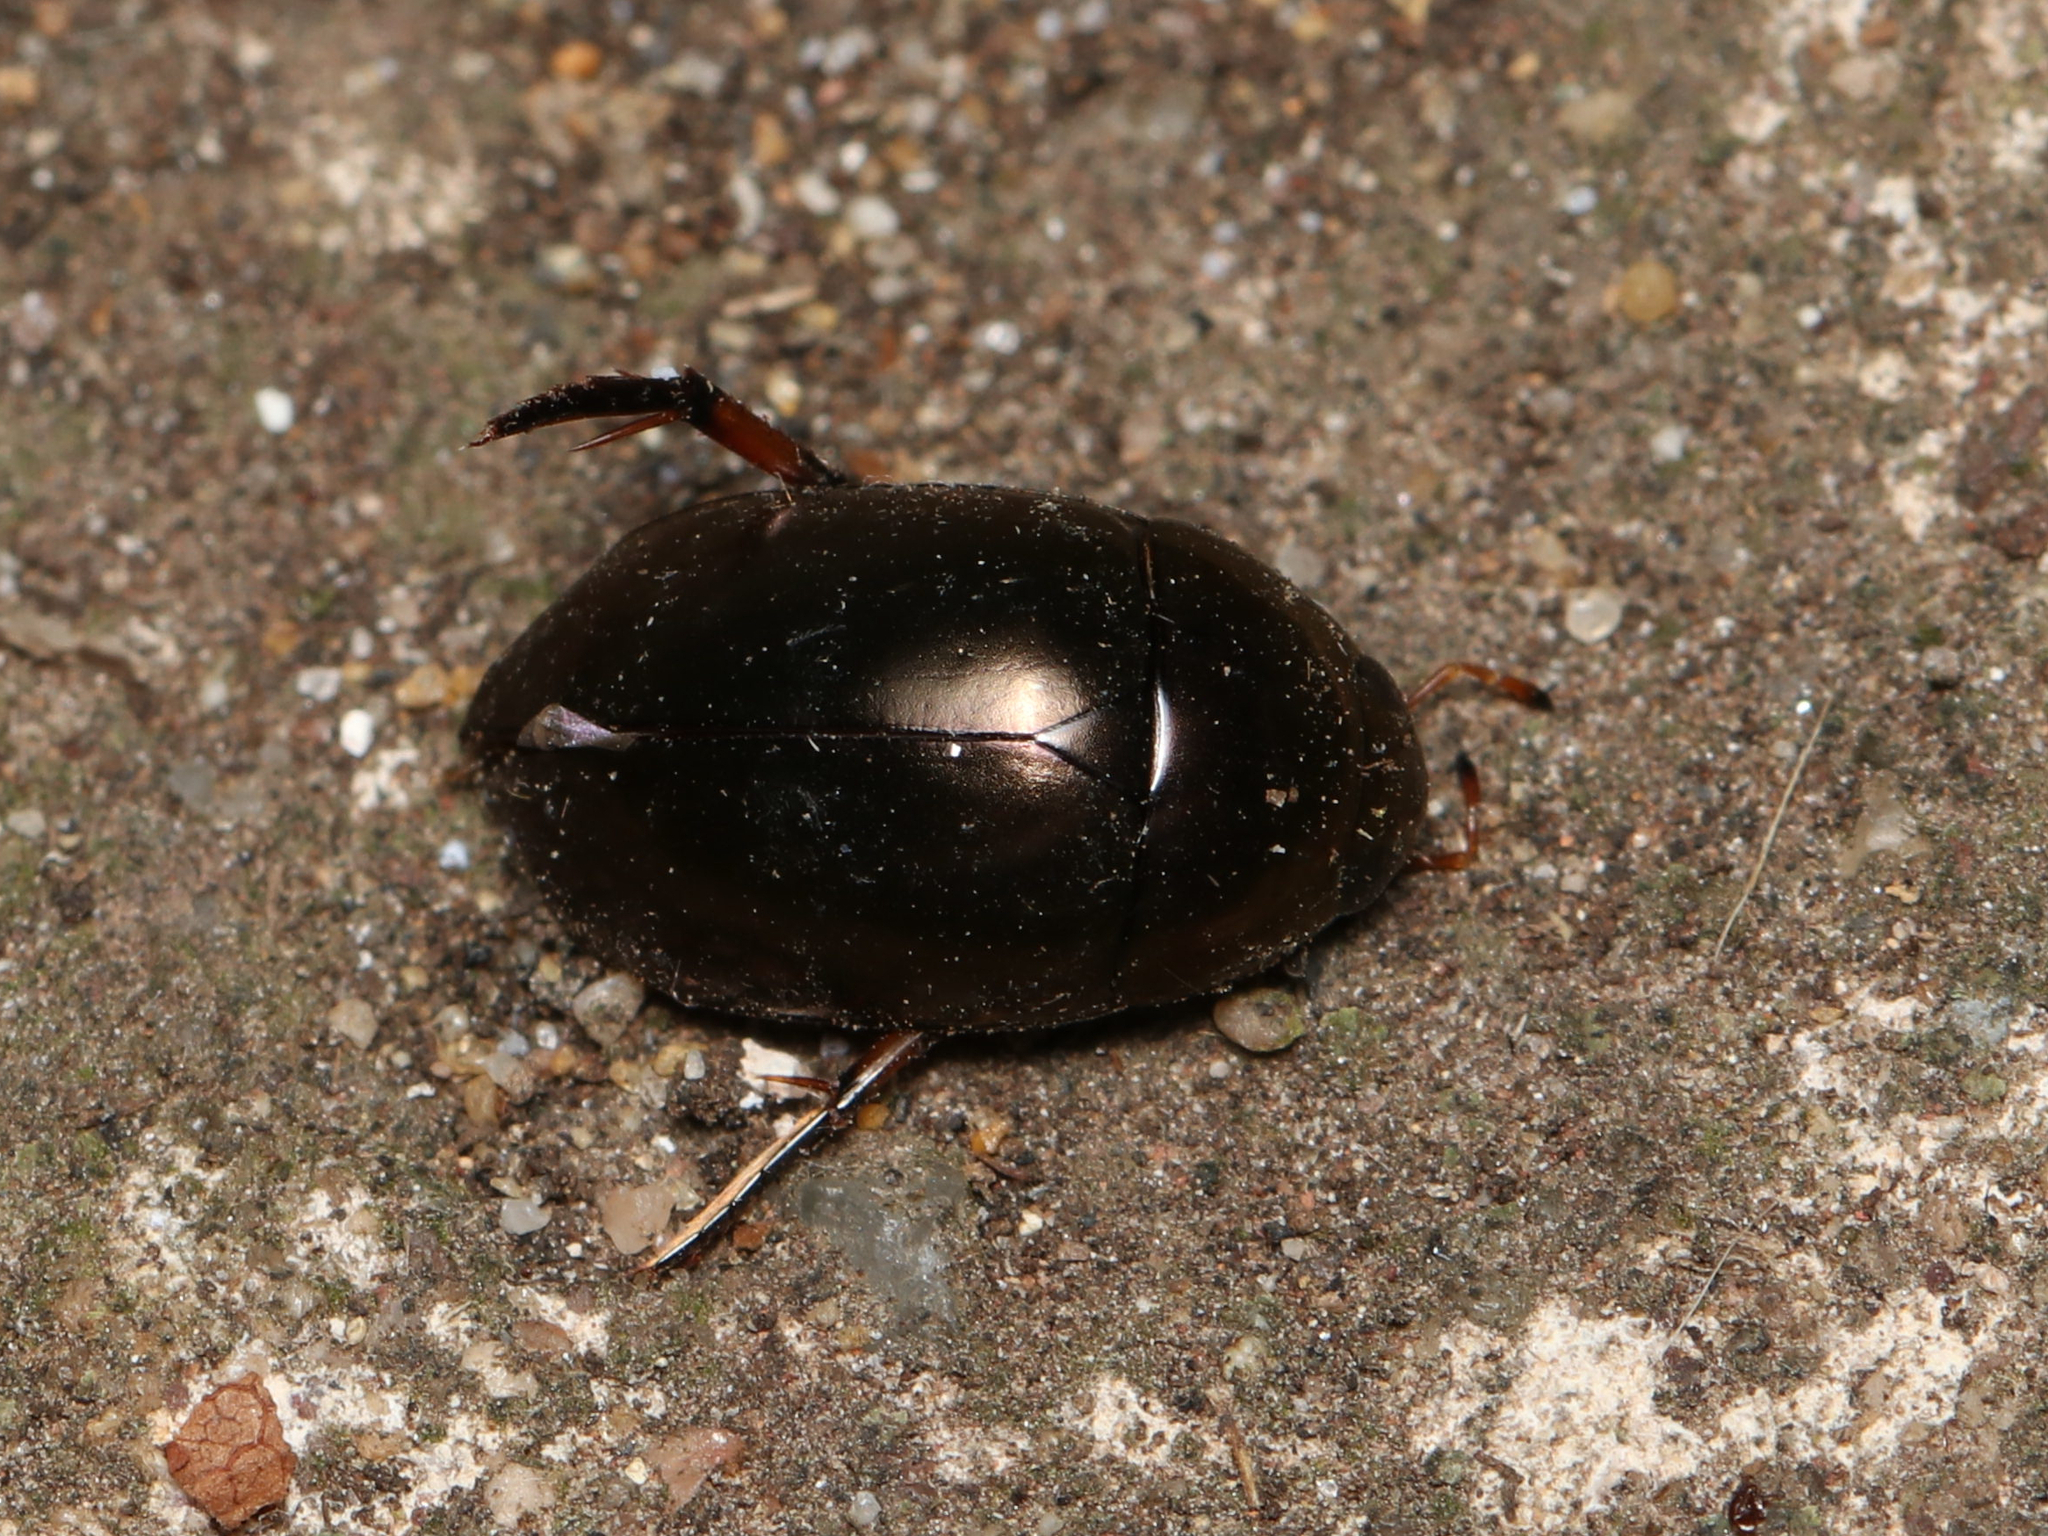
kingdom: Animalia
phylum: Arthropoda
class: Insecta
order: Coleoptera
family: Hydrophilidae
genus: Tropisternus
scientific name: Tropisternus
